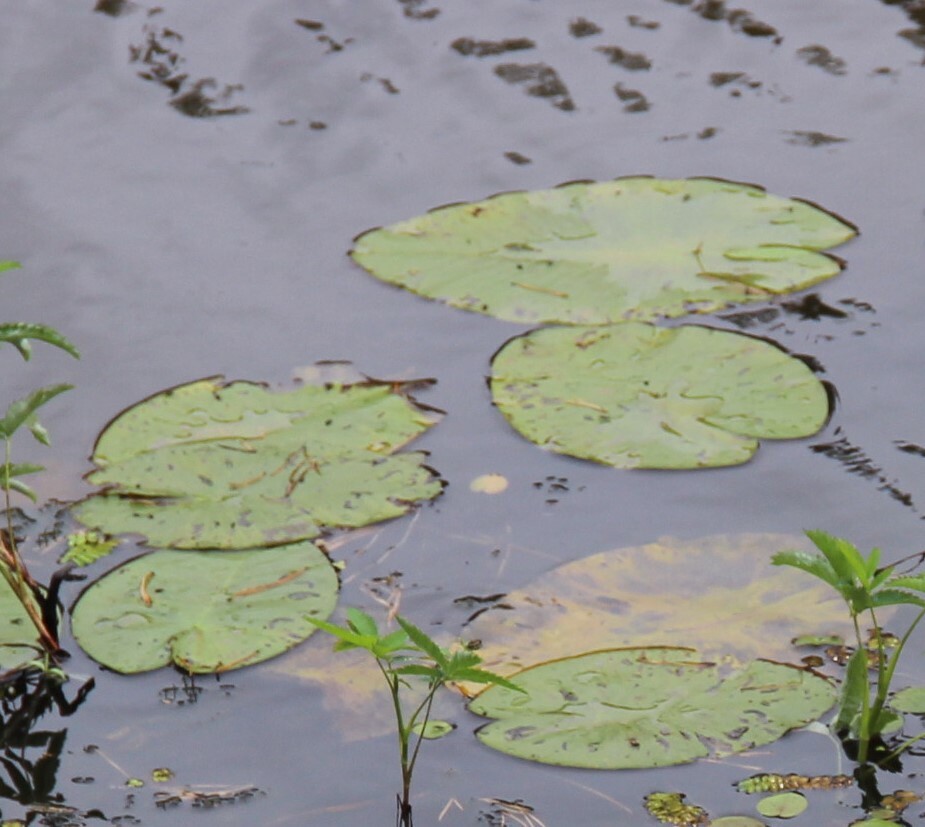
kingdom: Plantae
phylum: Tracheophyta
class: Magnoliopsida
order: Nymphaeales
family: Nymphaeaceae
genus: Nuphar
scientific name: Nuphar lutea
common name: Yellow water-lily
